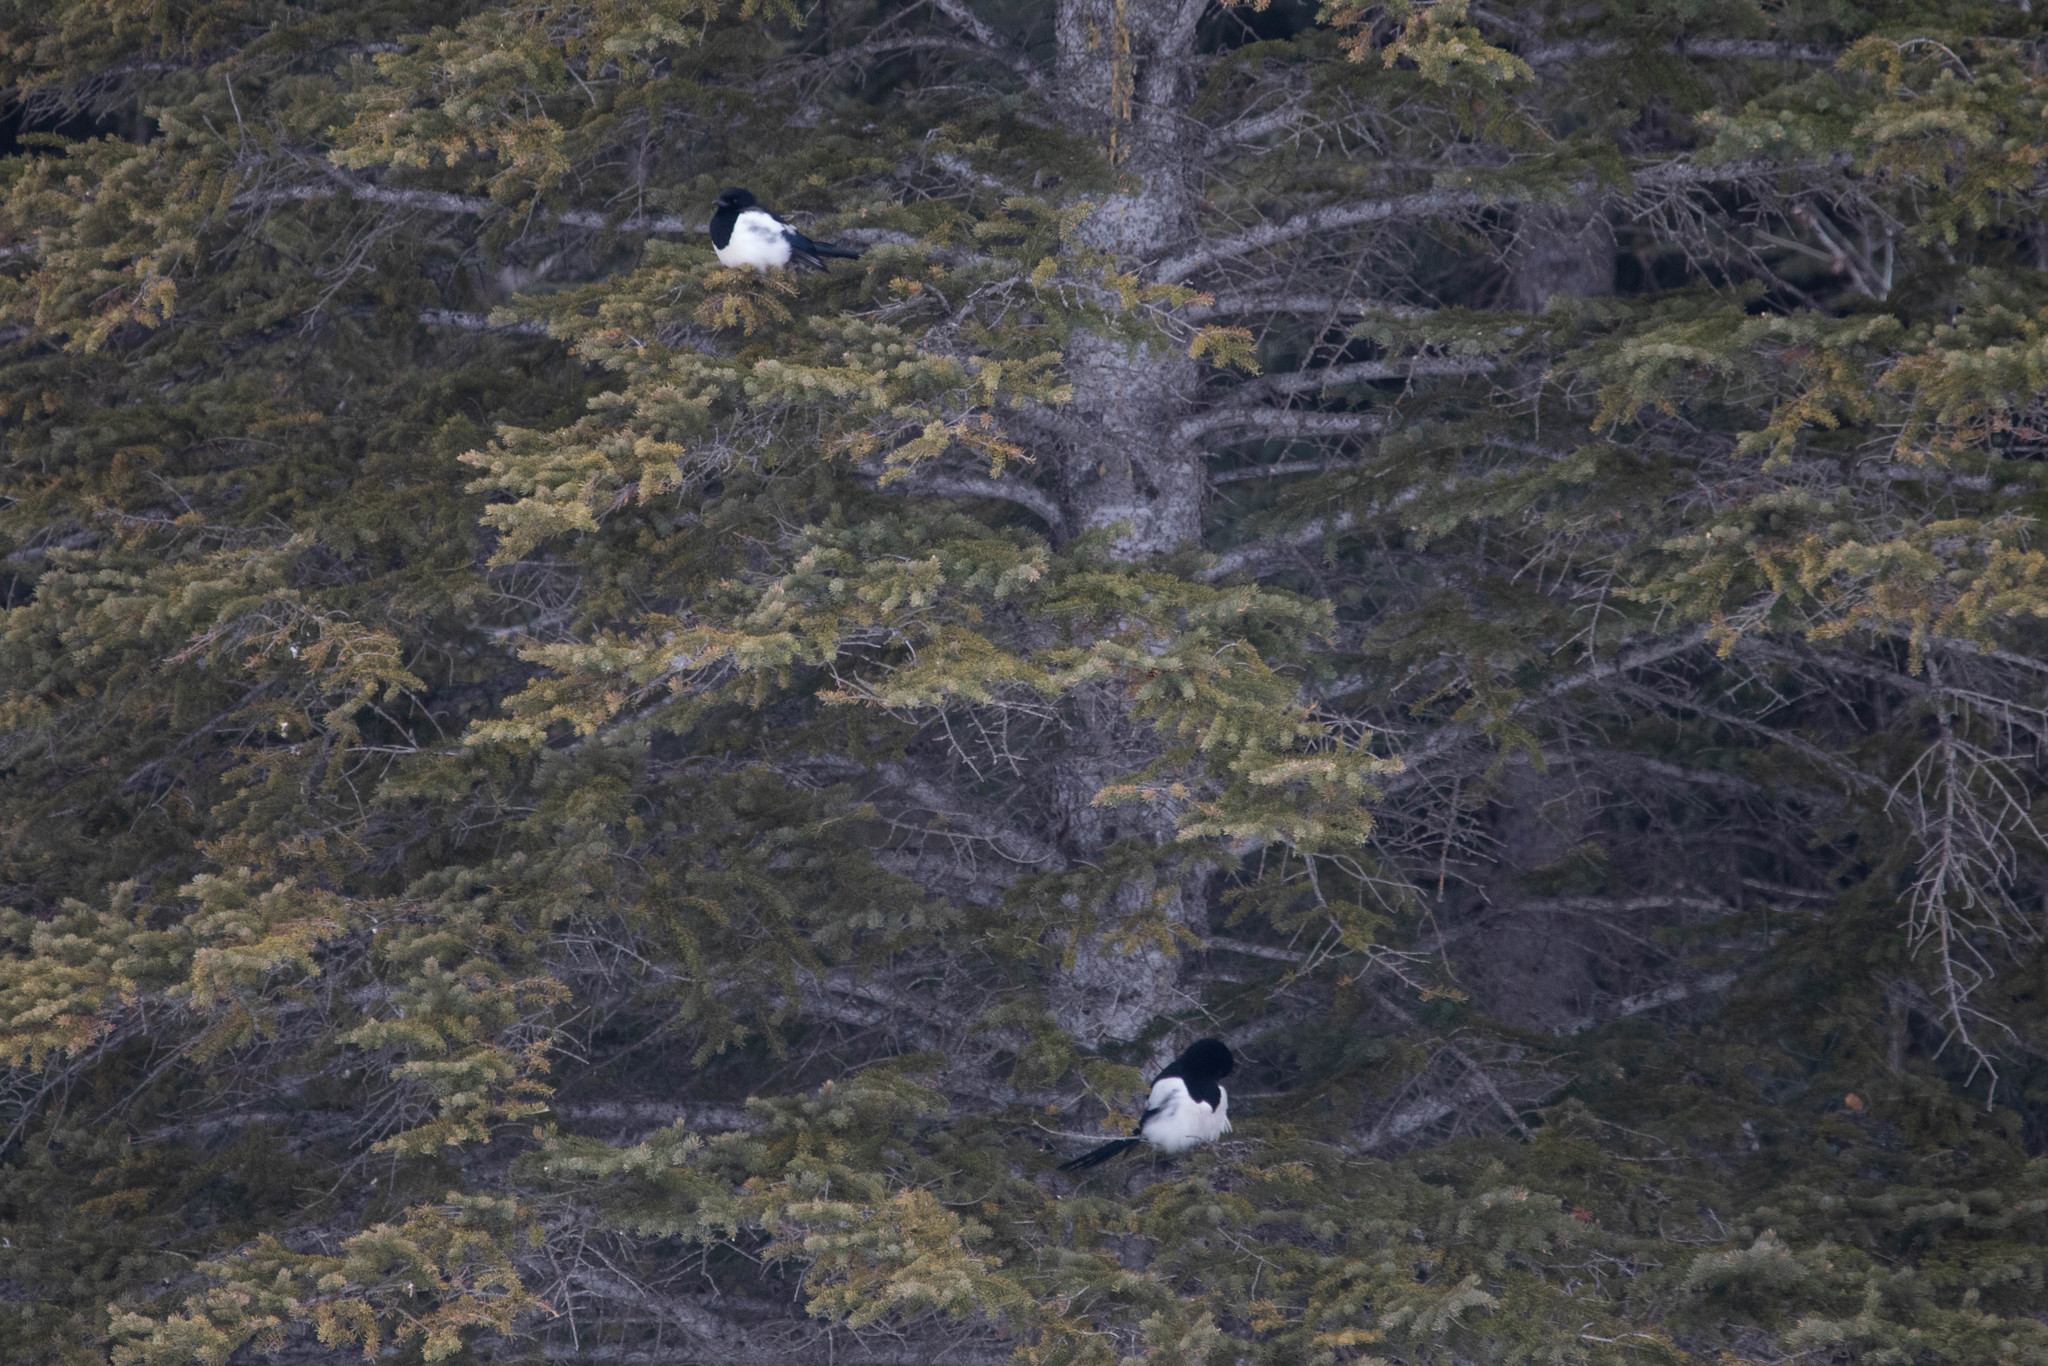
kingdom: Animalia
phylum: Chordata
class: Aves
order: Passeriformes
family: Corvidae
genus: Pica
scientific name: Pica hudsonia
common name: Black-billed magpie
